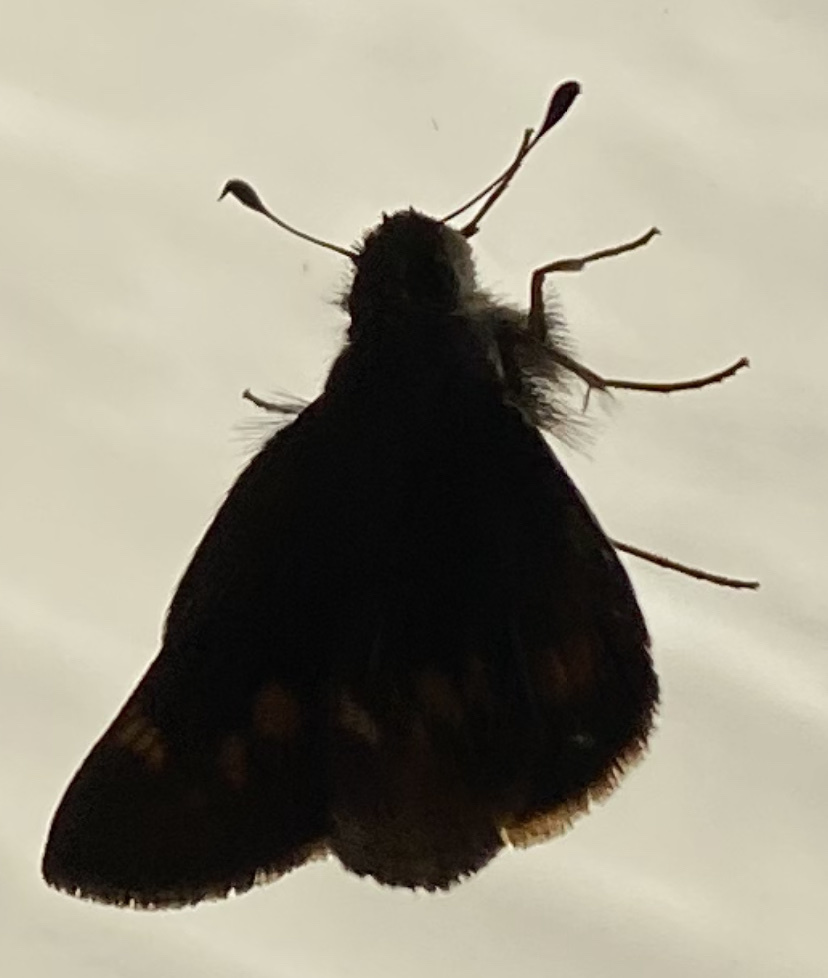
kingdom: Animalia
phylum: Arthropoda
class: Insecta
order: Lepidoptera
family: Hesperiidae
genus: Lon
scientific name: Lon melane
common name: Umber skipper
